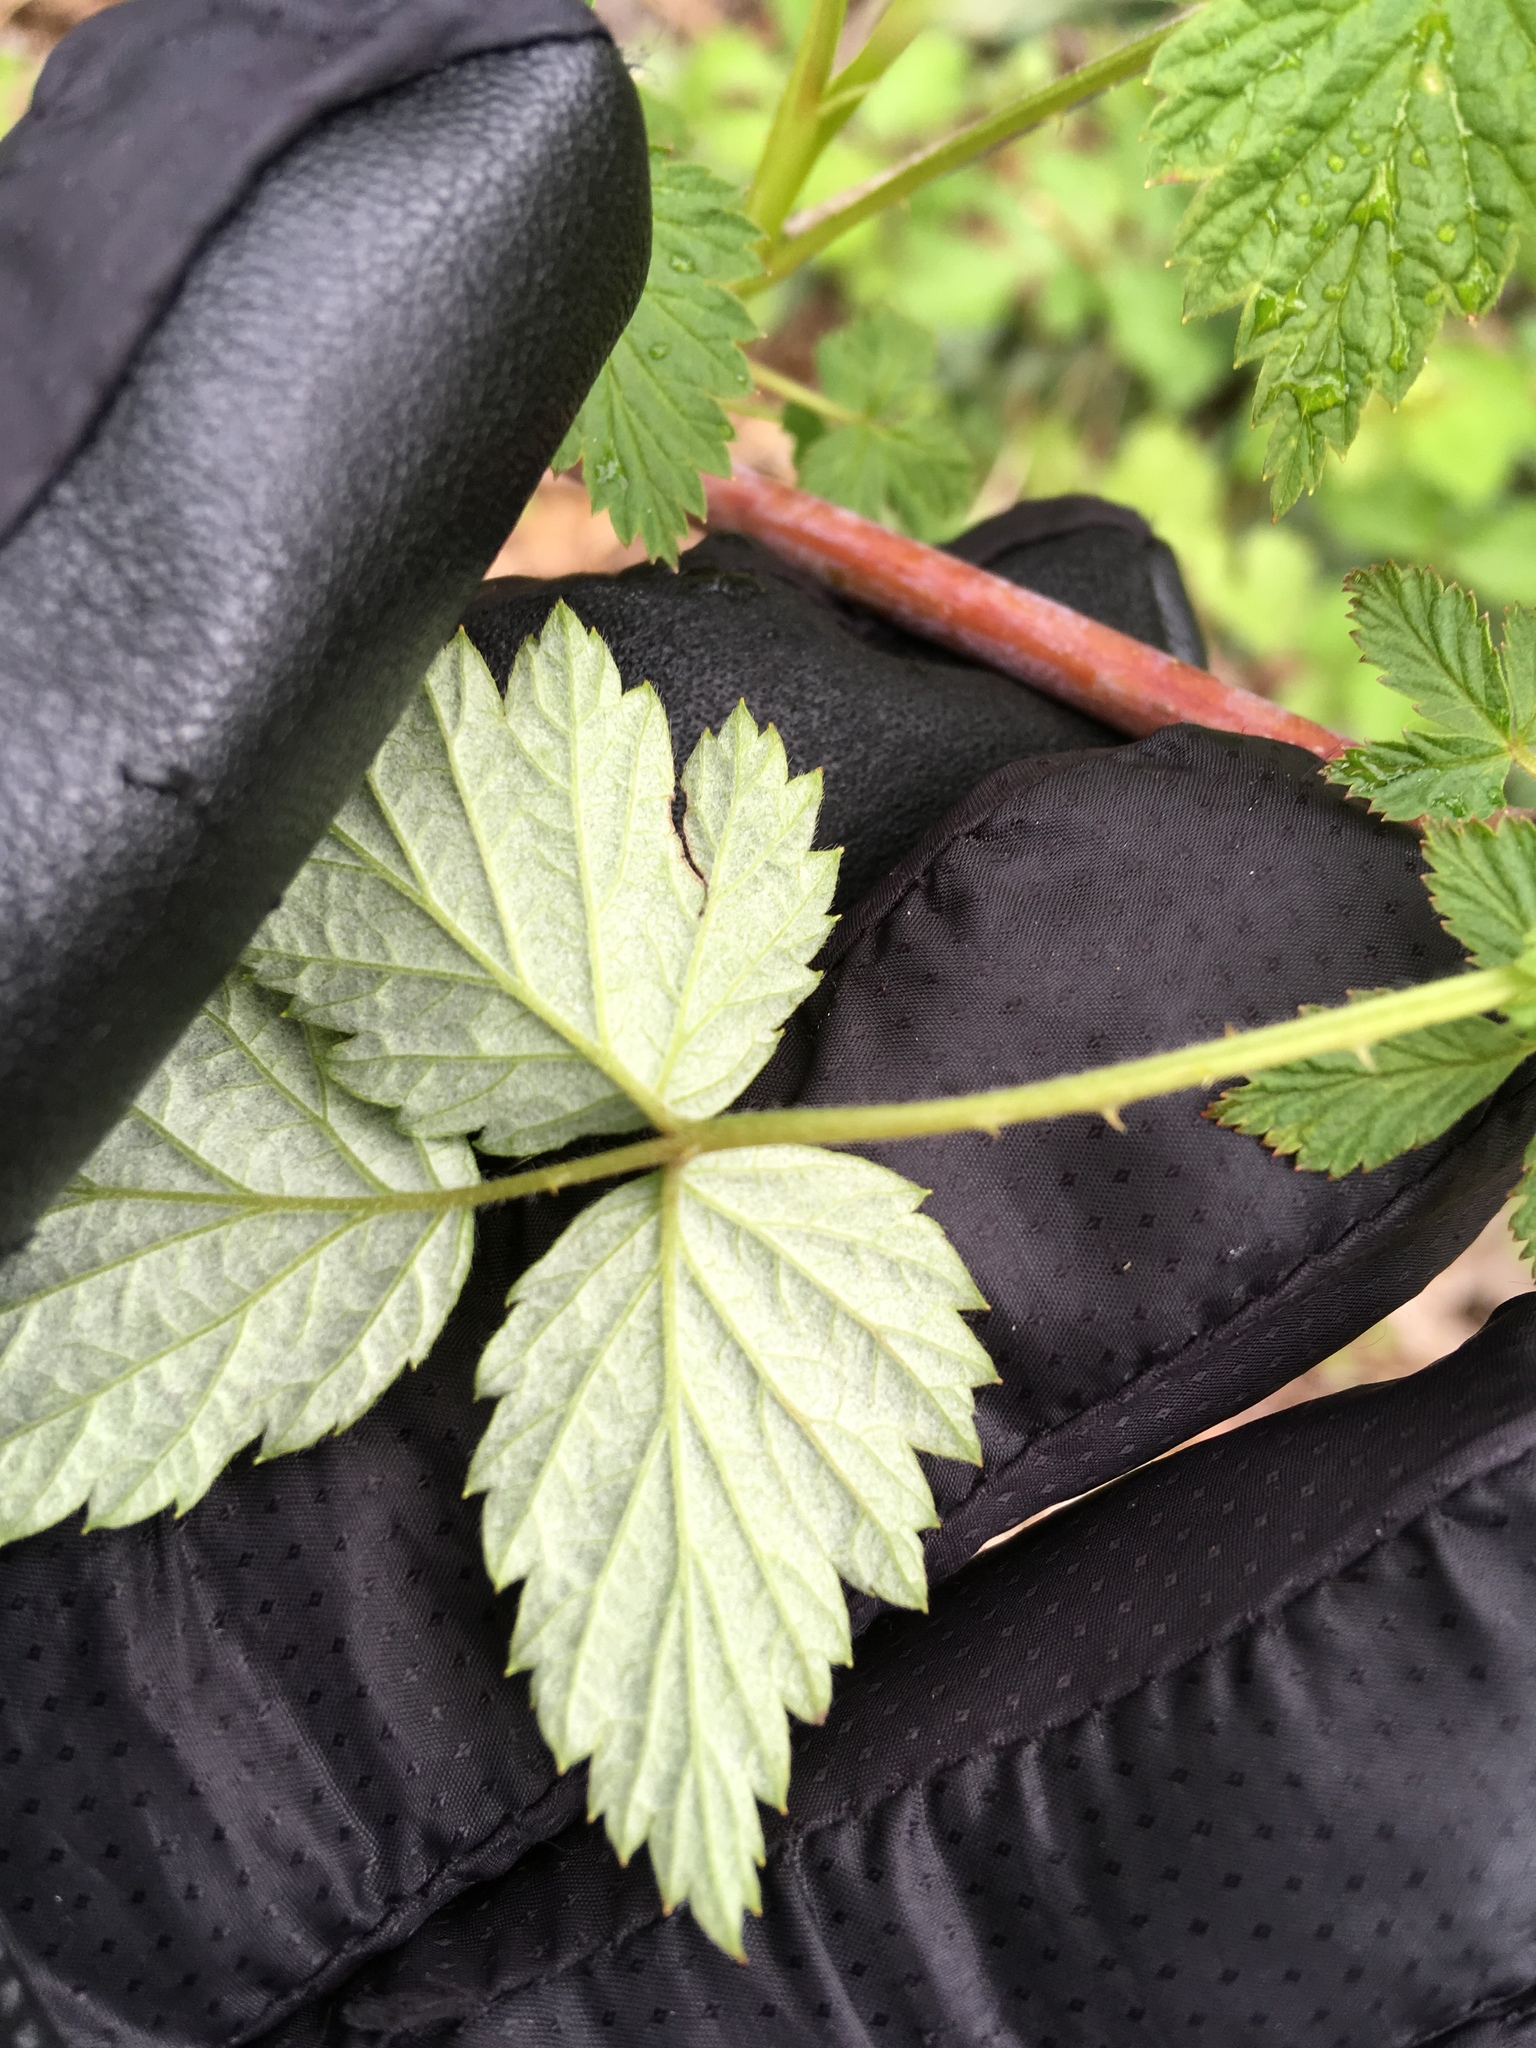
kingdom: Plantae
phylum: Tracheophyta
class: Magnoliopsida
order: Rosales
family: Rosaceae
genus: Rubus
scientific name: Rubus occidentalis
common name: Black raspberry
